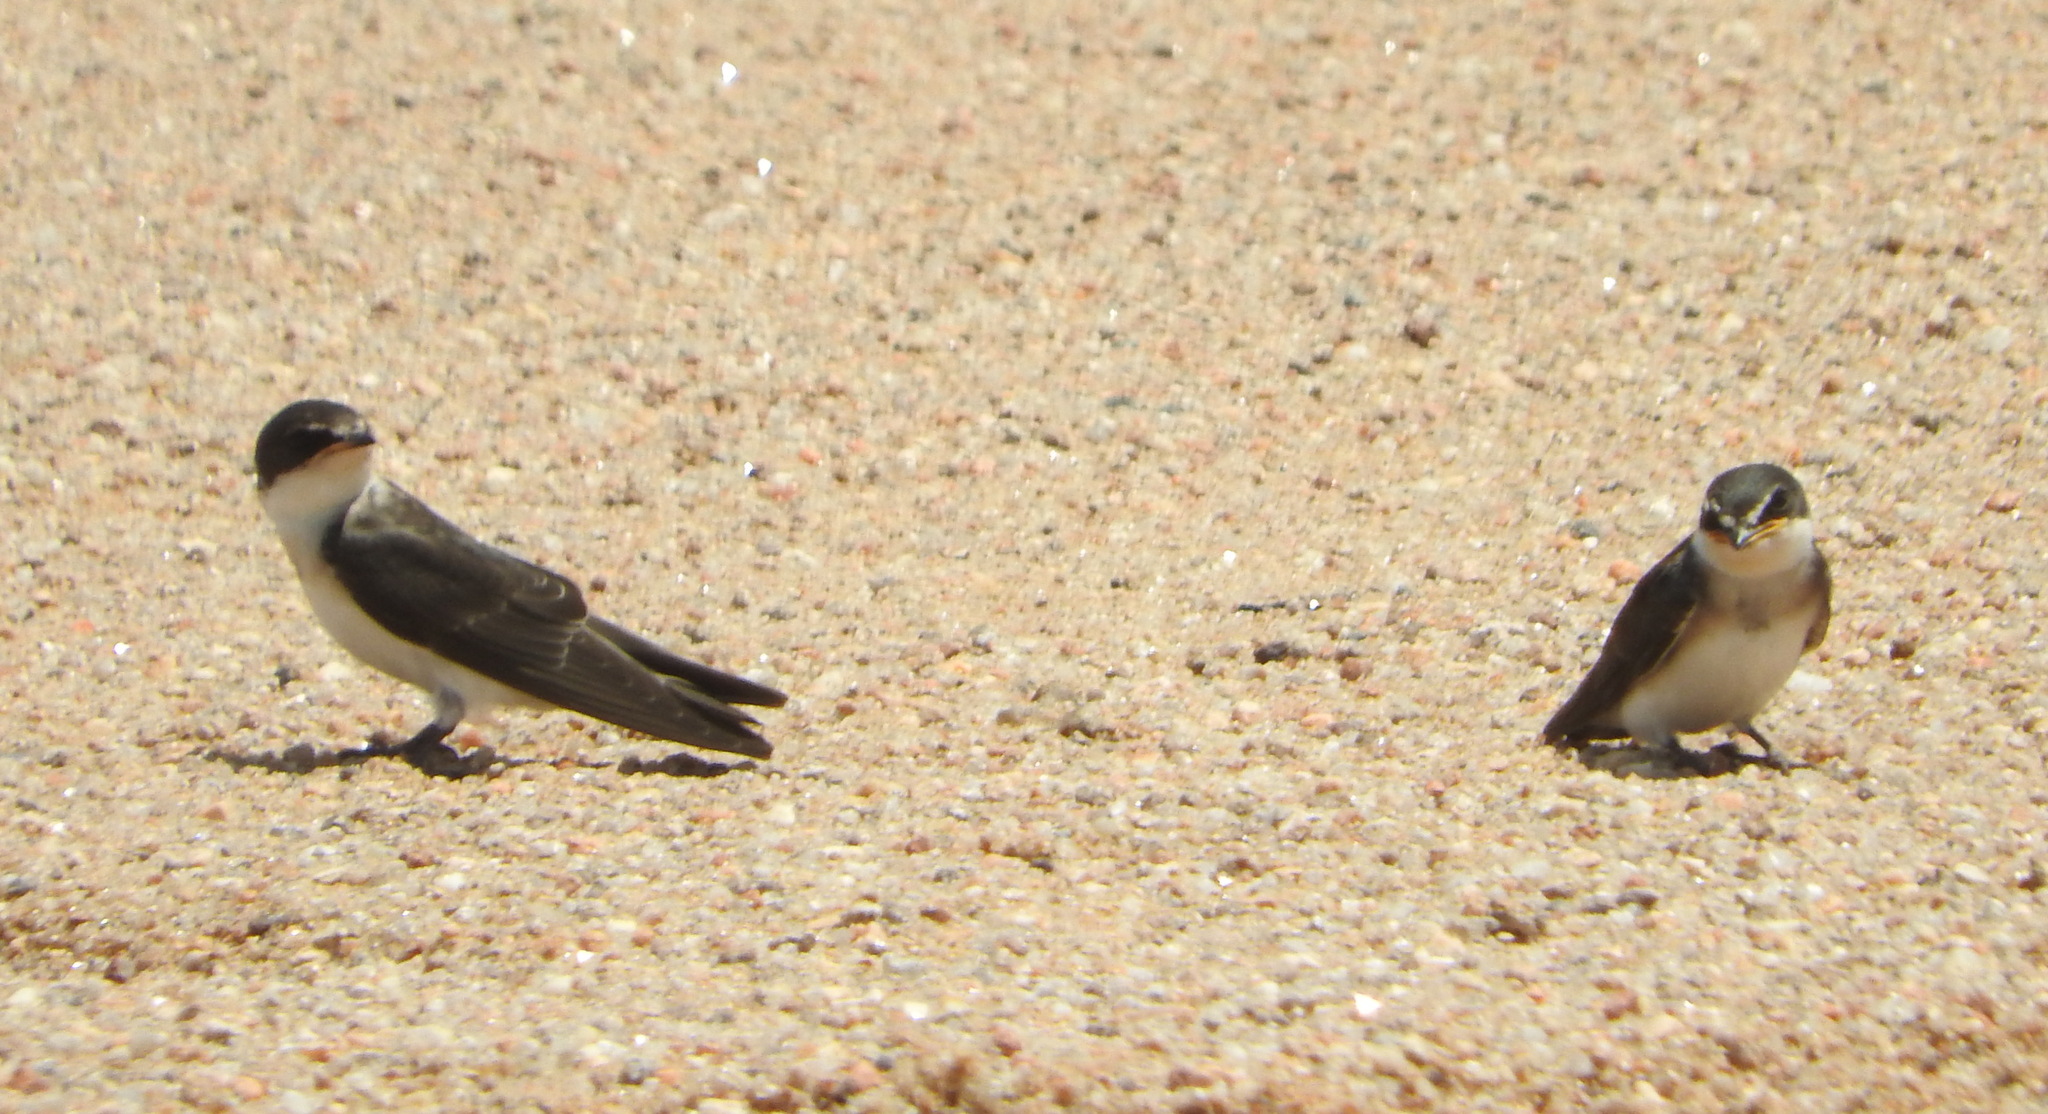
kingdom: Animalia
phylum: Chordata
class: Aves
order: Passeriformes
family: Hirundinidae
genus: Tachycineta
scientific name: Tachycineta leucorrhoa
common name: White-rumped swallow
